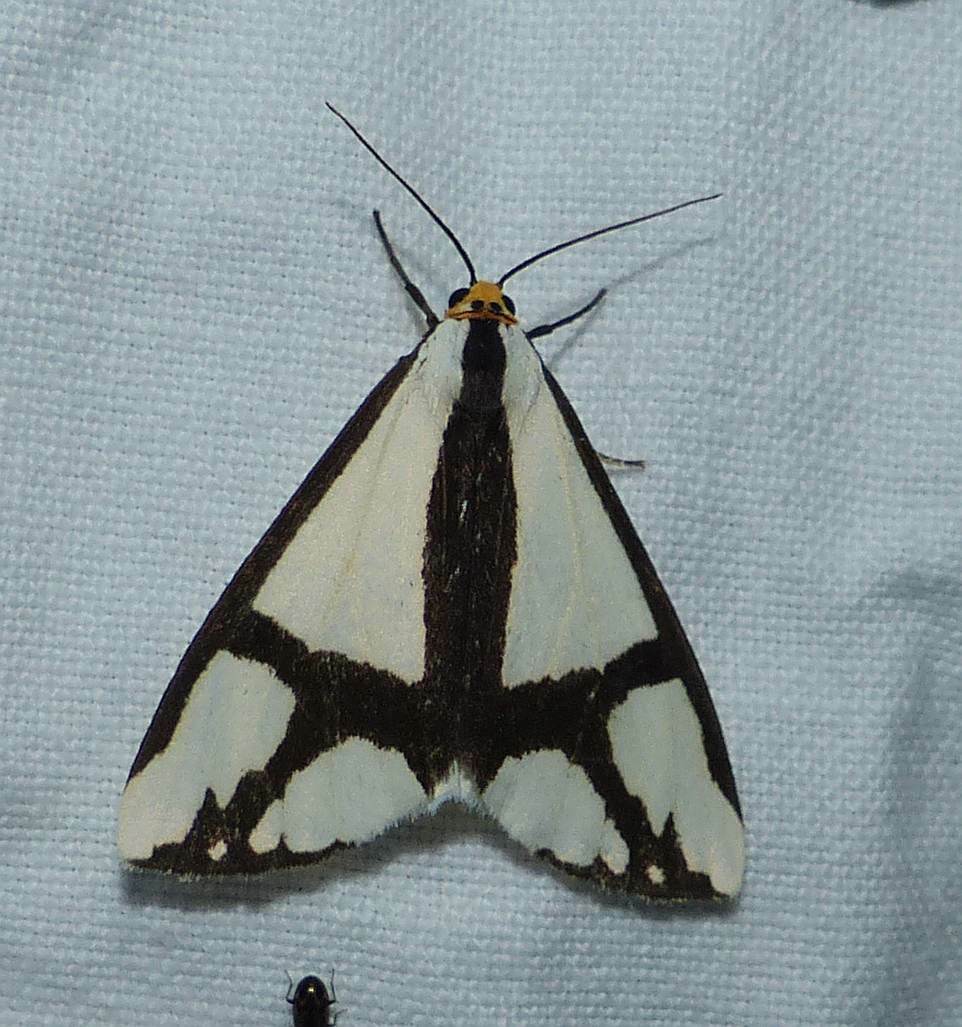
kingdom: Animalia
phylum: Arthropoda
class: Insecta
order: Lepidoptera
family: Erebidae
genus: Haploa
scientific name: Haploa contigua
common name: Neighbor moth
